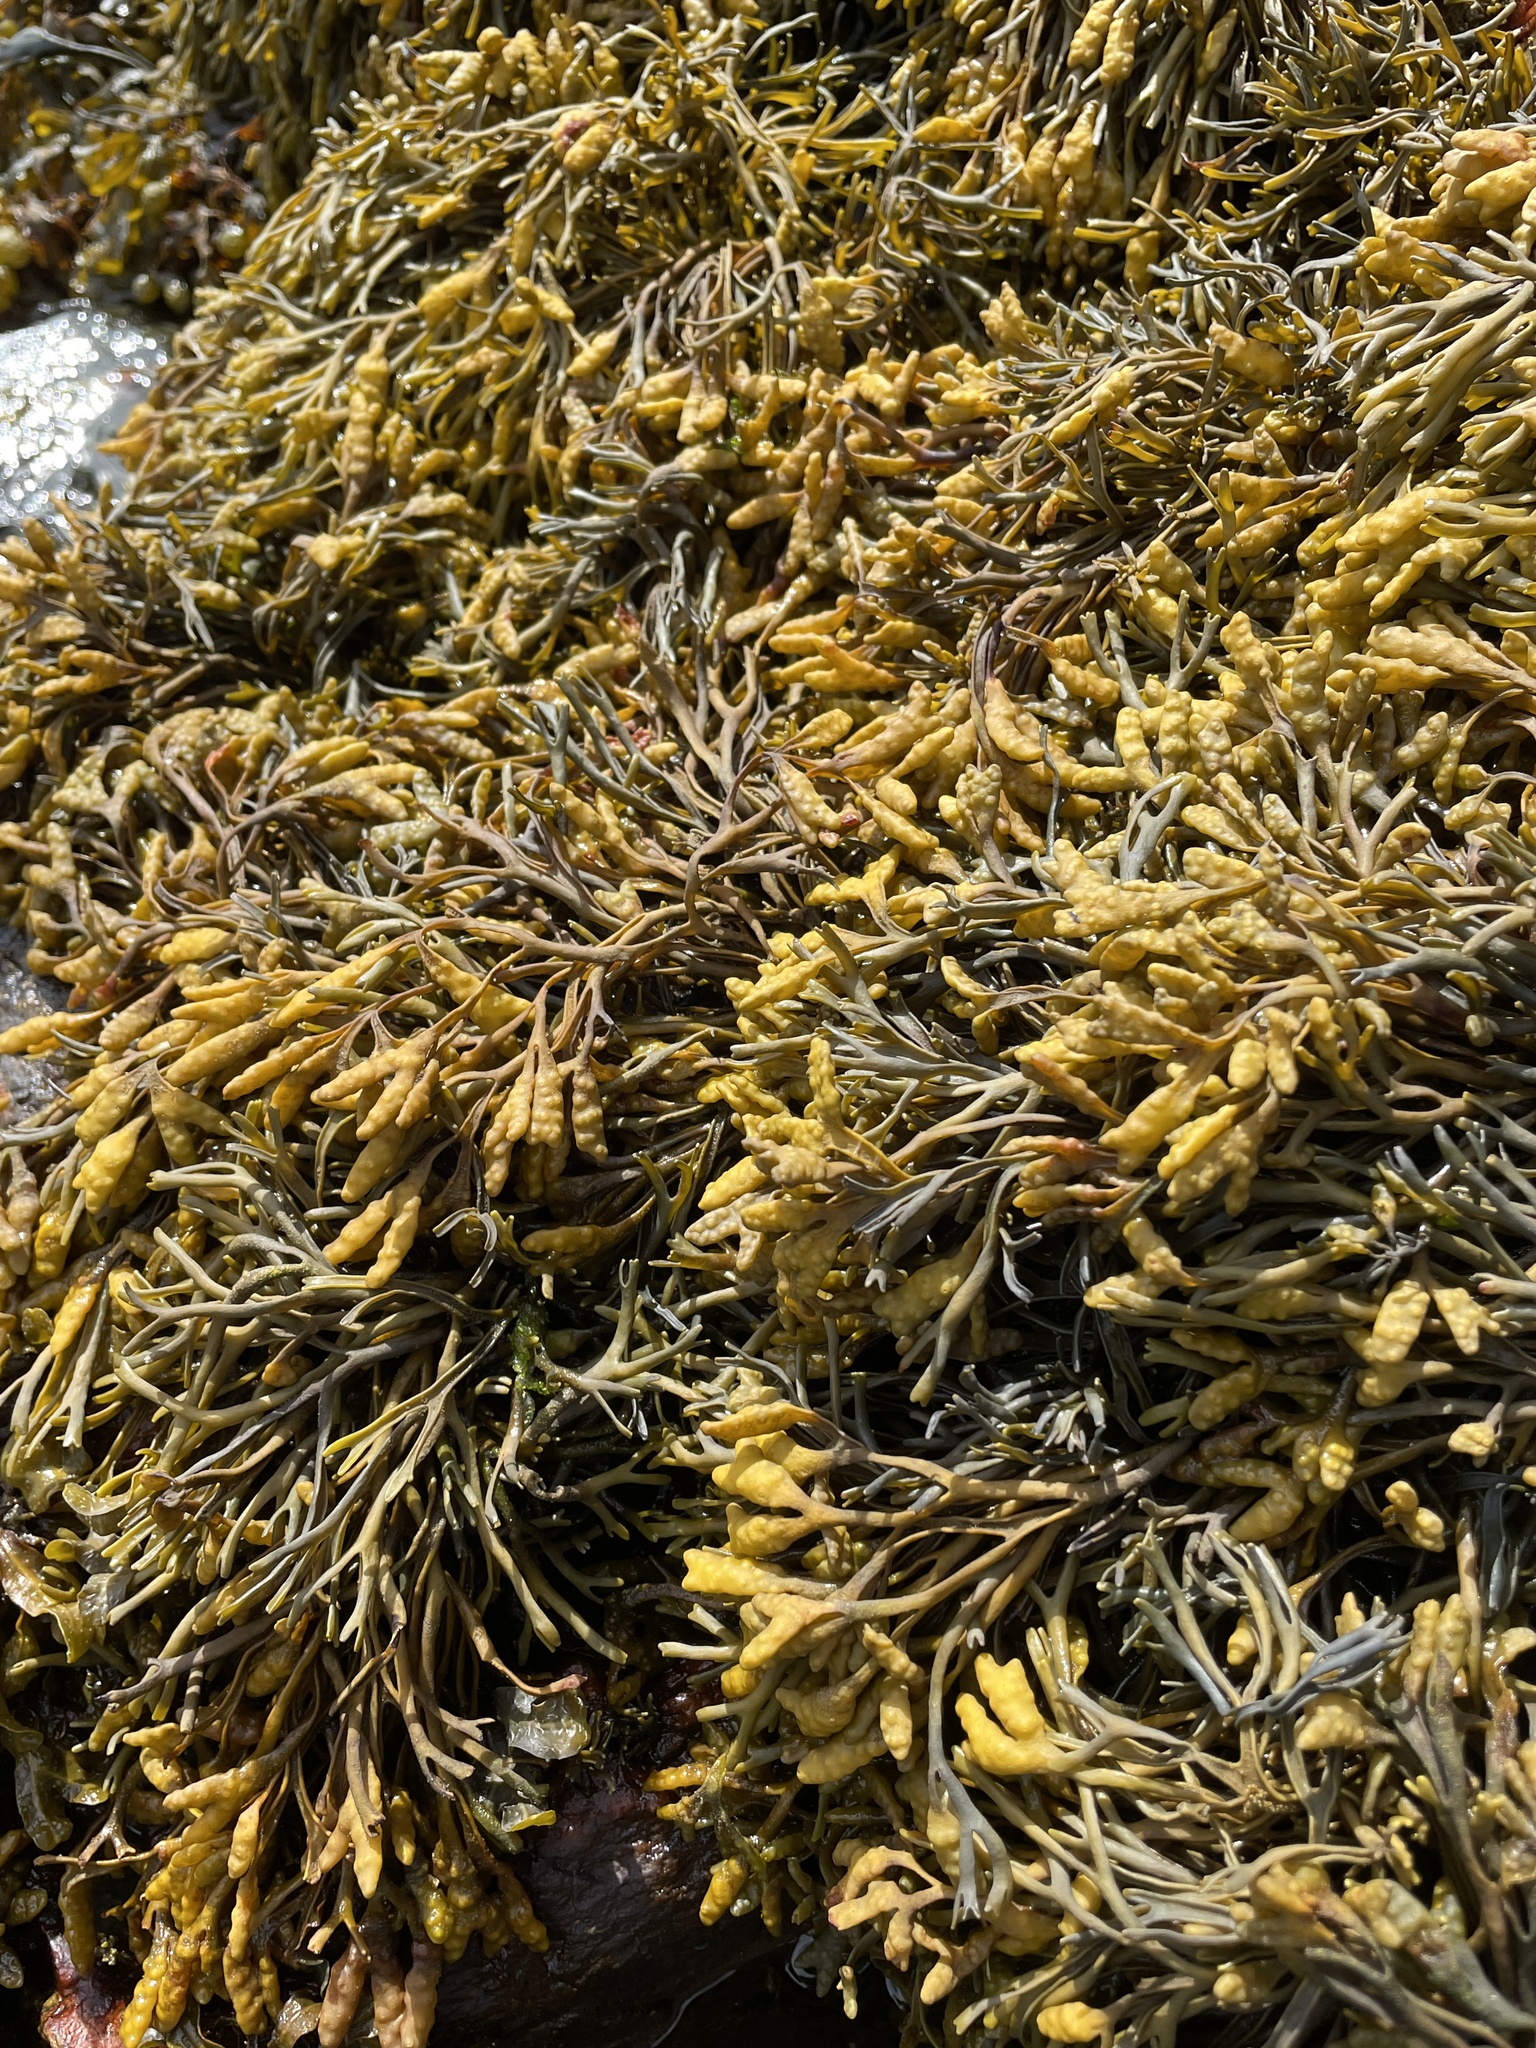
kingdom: Chromista
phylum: Ochrophyta
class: Phaeophyceae
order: Fucales
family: Fucaceae
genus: Pelvetia
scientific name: Pelvetia canaliculata
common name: Channelled wrack
